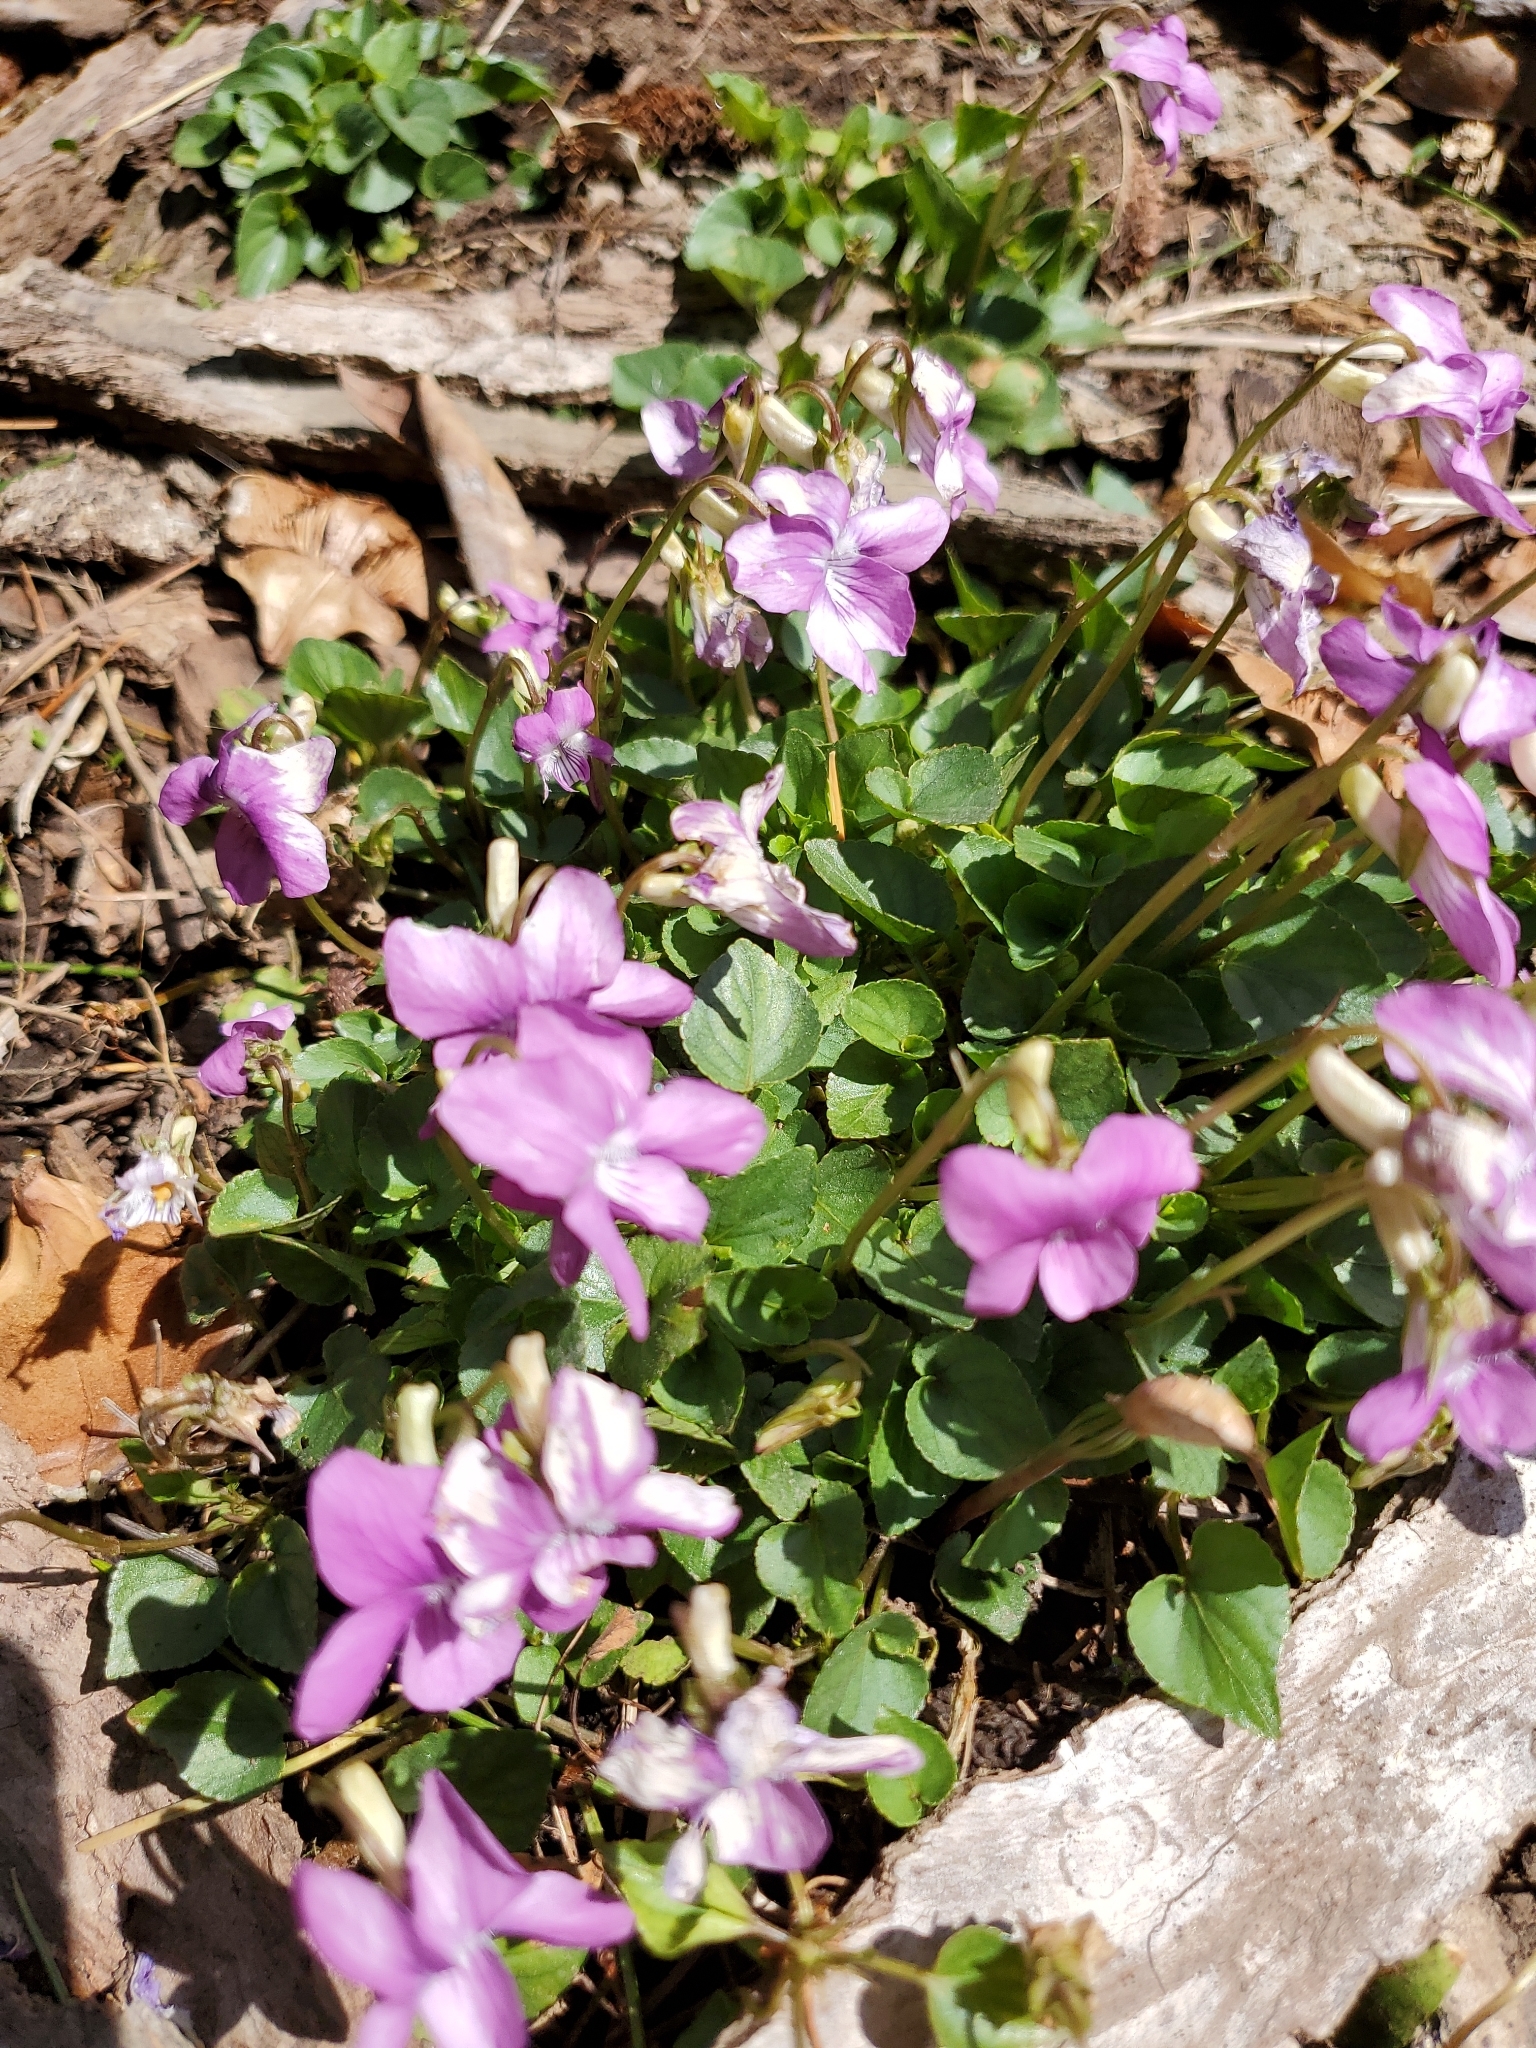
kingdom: Plantae
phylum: Tracheophyta
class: Magnoliopsida
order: Malpighiales
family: Violaceae
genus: Viola
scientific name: Viola riviniana
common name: Common dog-violet
